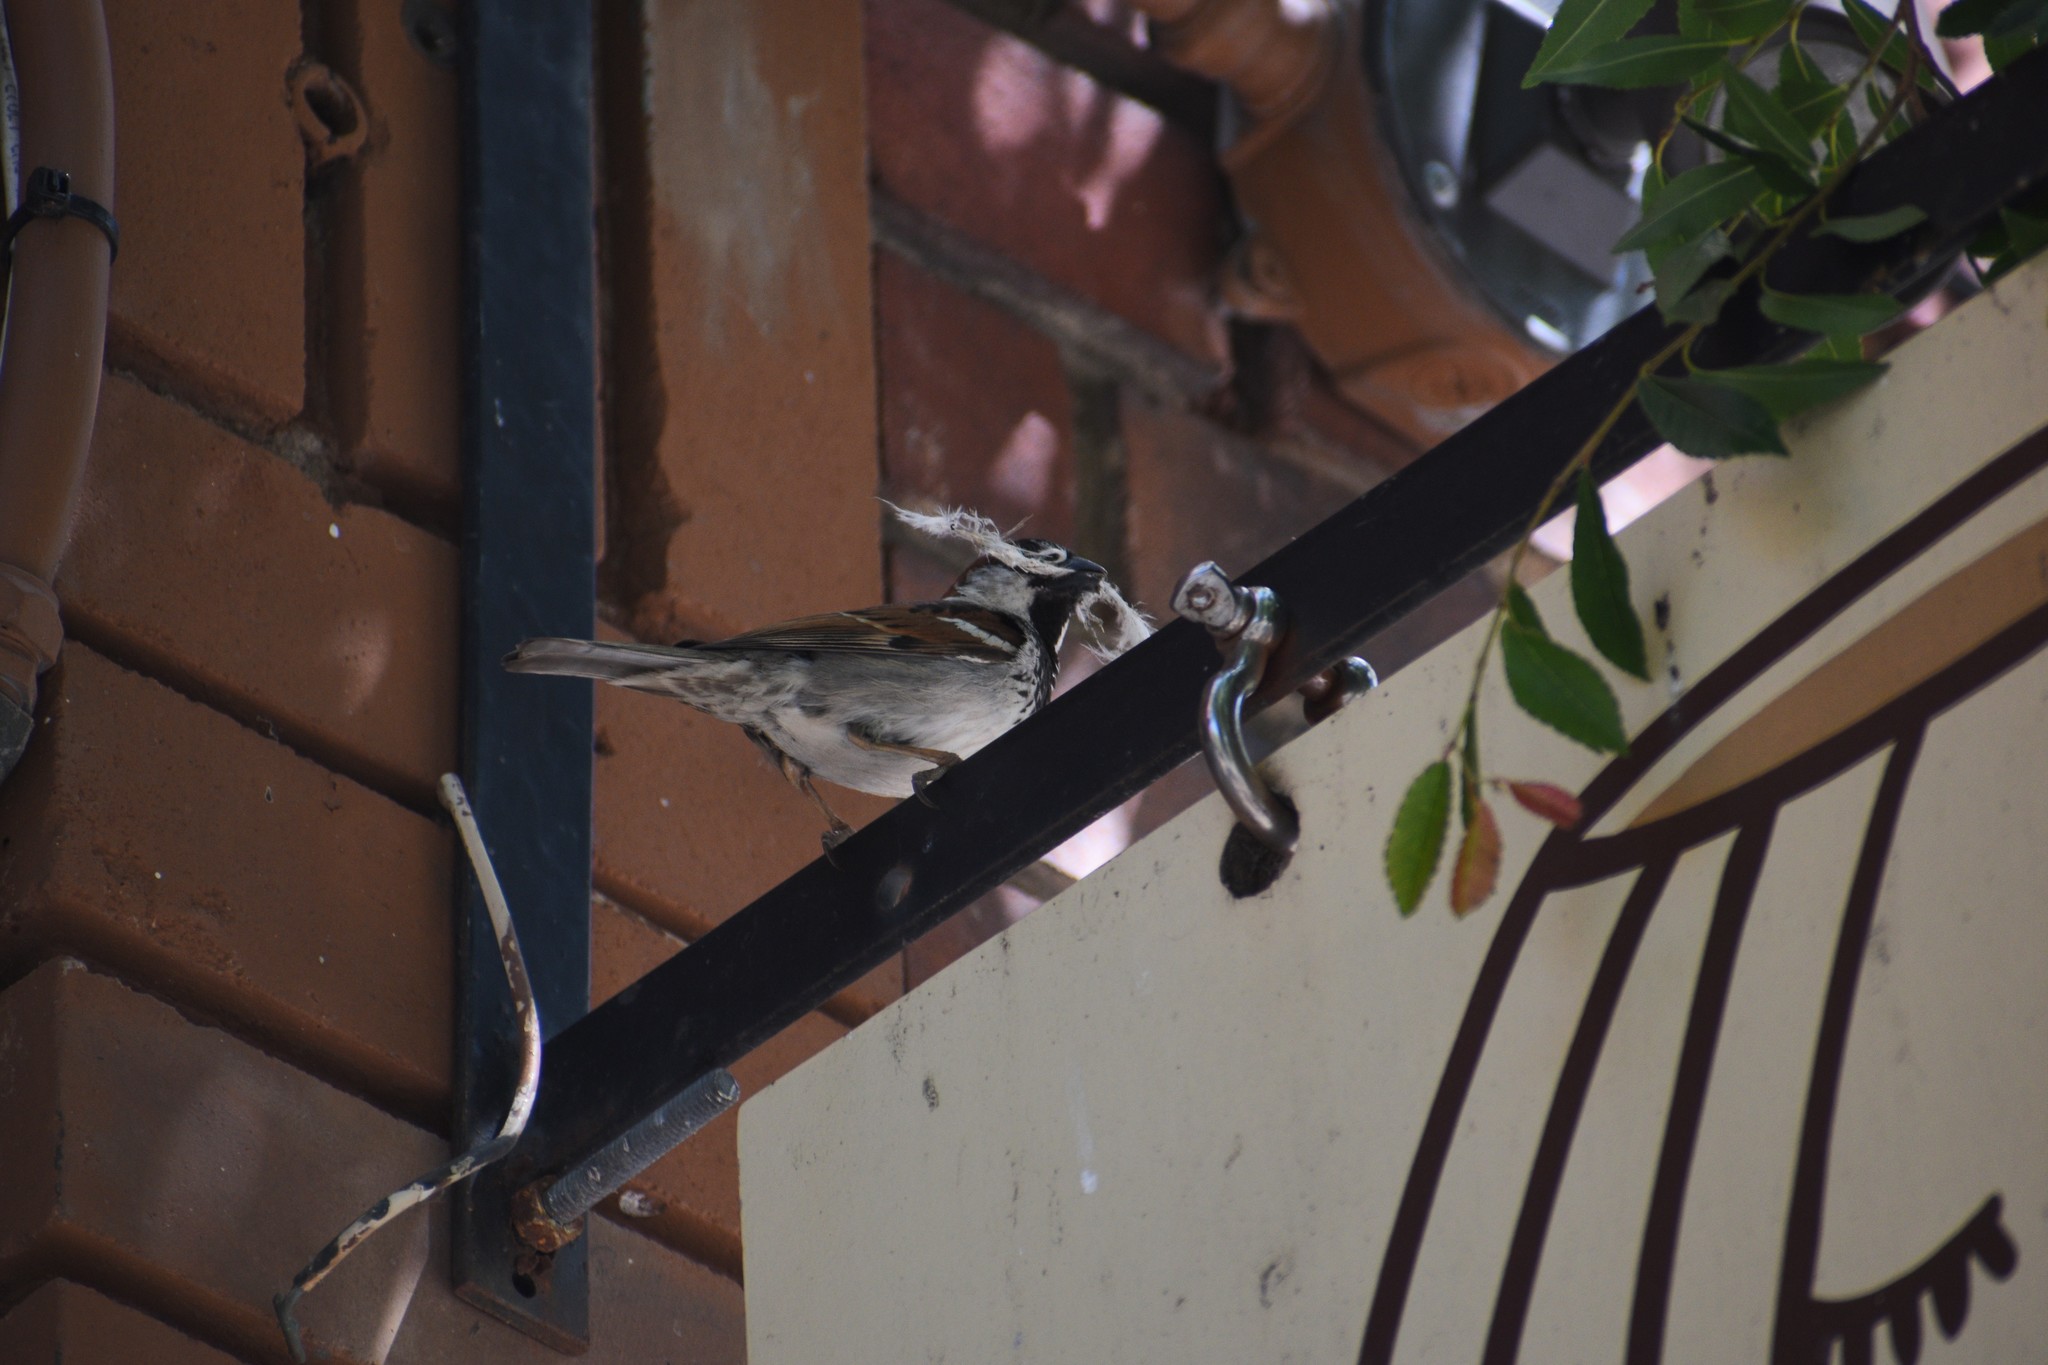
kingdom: Animalia
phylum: Chordata
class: Aves
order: Passeriformes
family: Passeridae
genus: Passer
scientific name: Passer domesticus
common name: House sparrow
